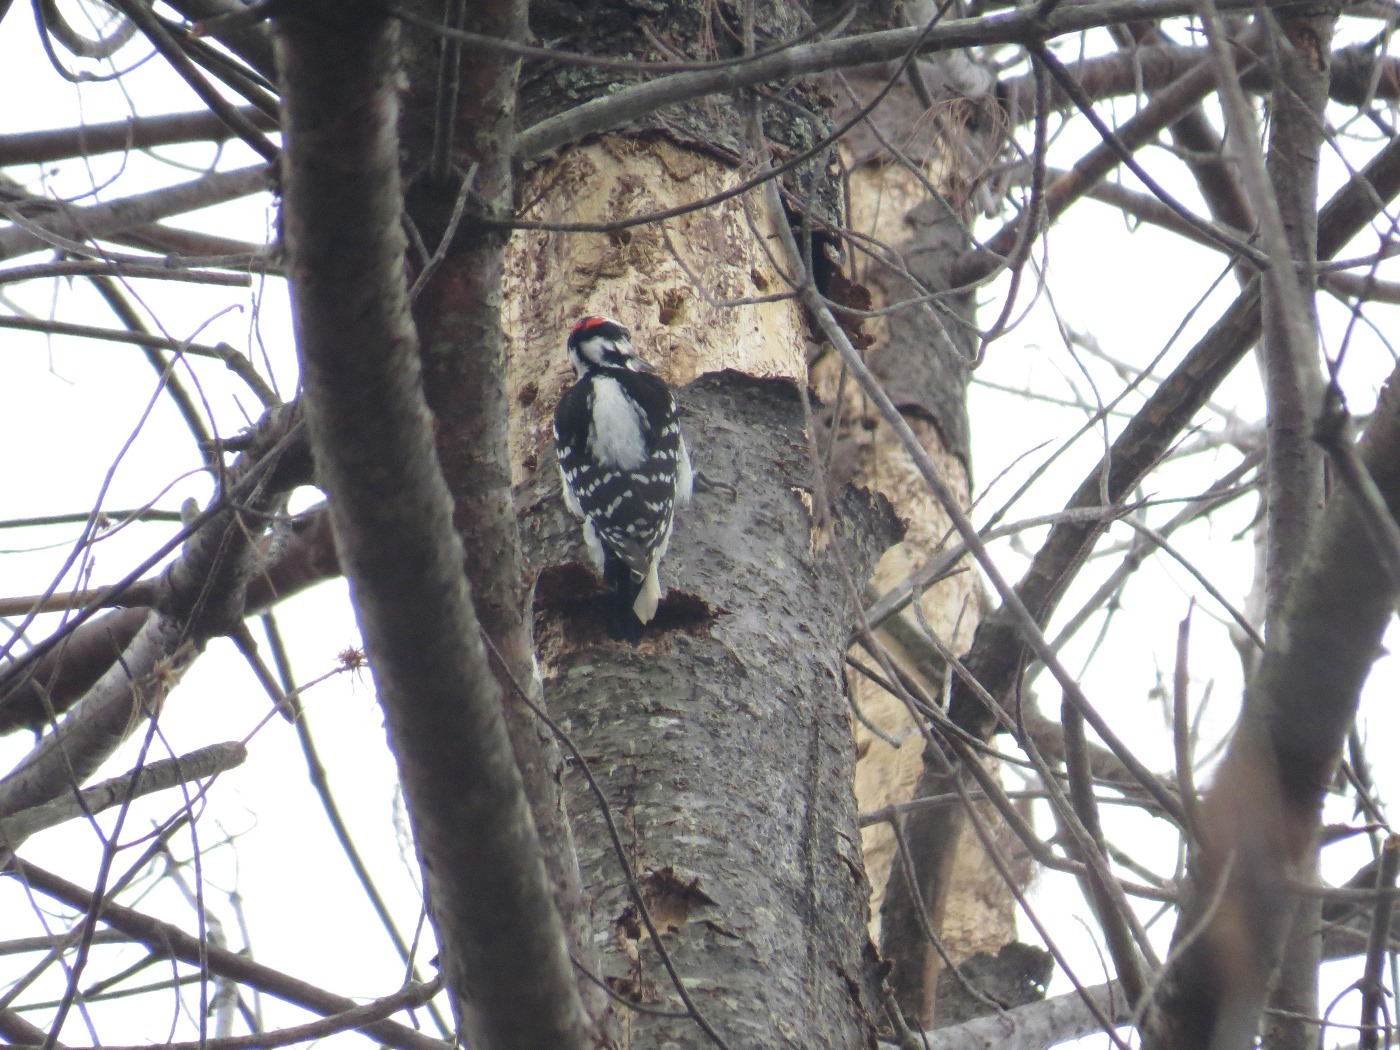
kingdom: Animalia
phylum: Chordata
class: Aves
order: Piciformes
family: Picidae
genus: Leuconotopicus
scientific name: Leuconotopicus villosus
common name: Hairy woodpecker
